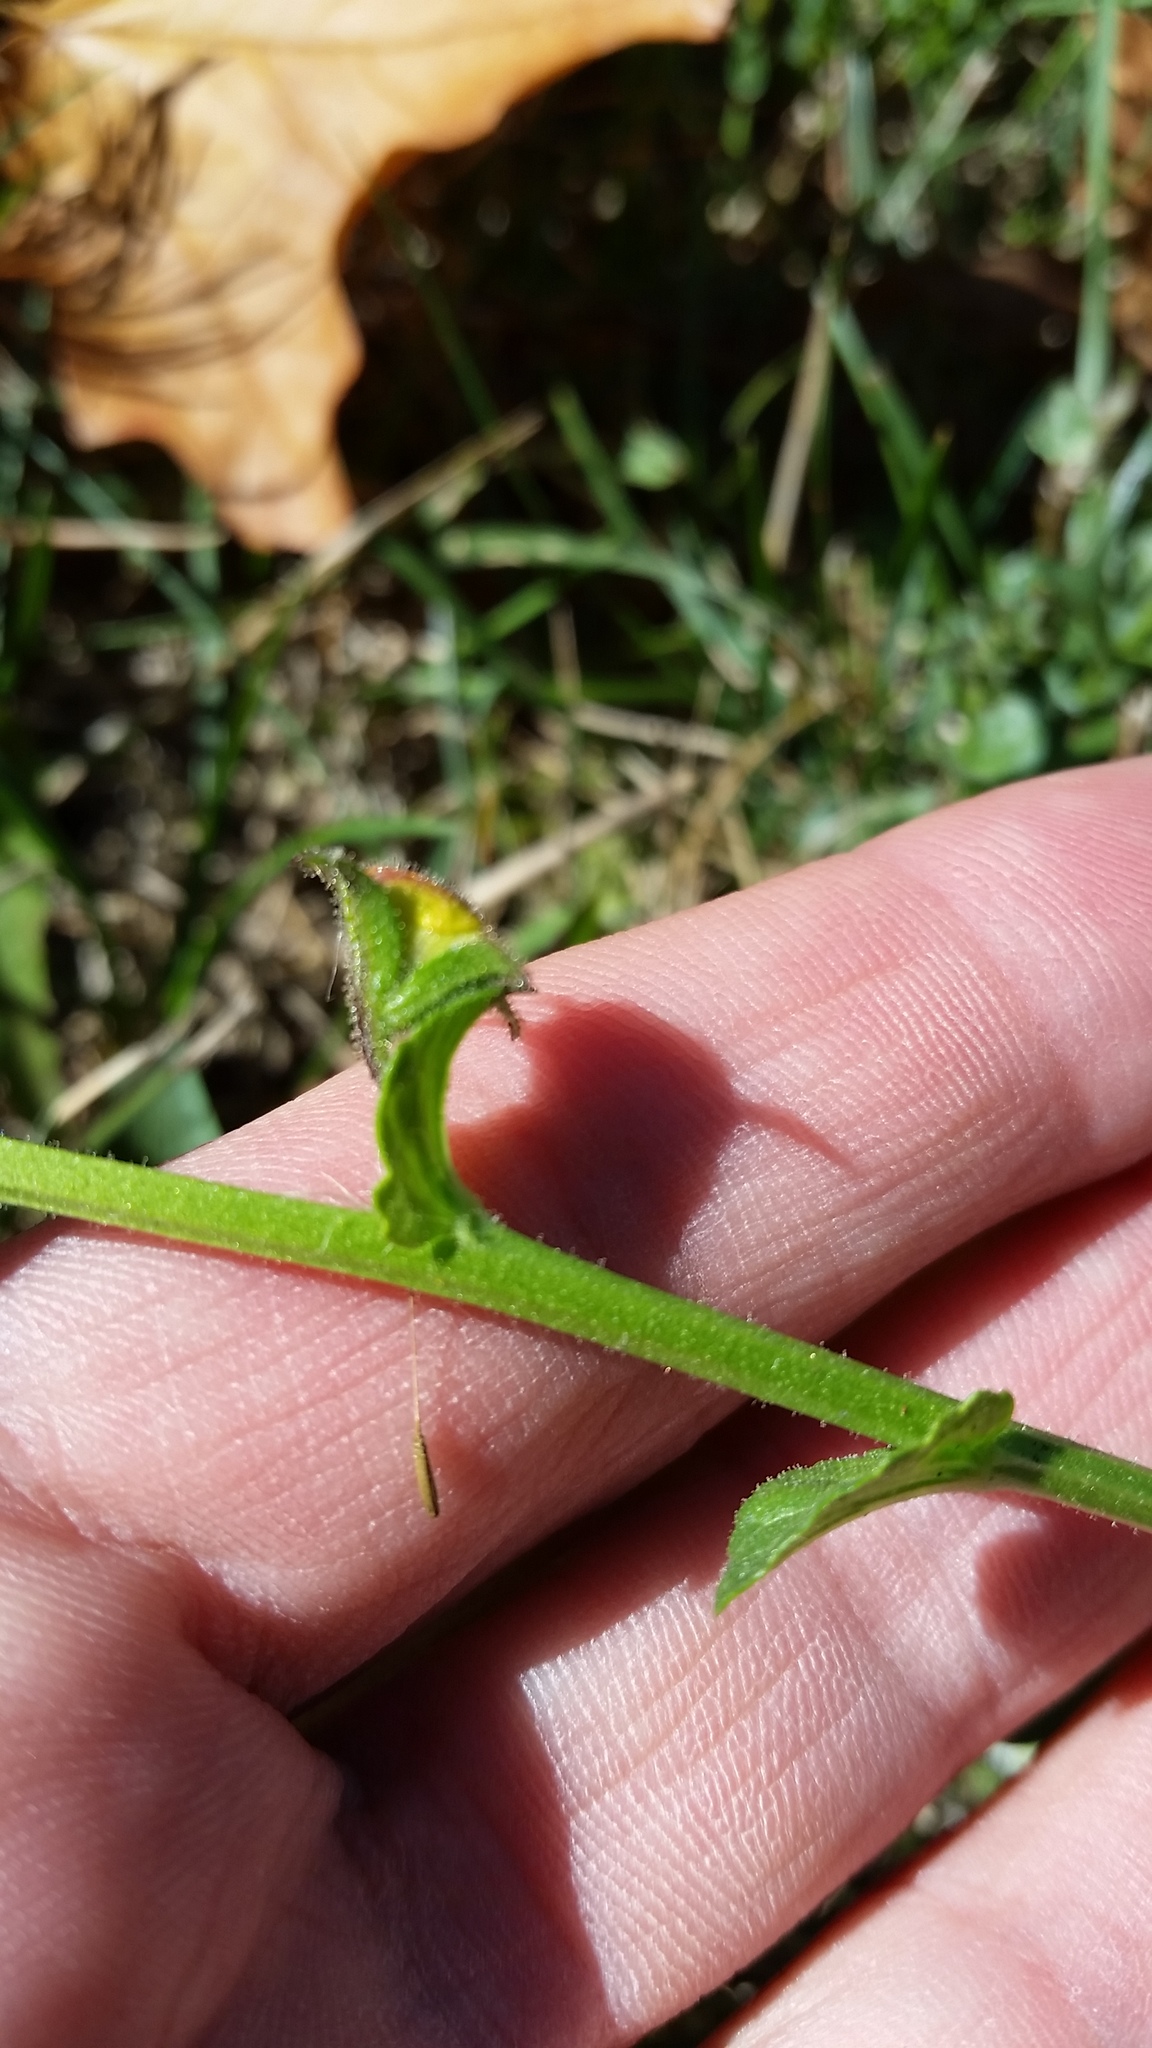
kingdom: Plantae
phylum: Tracheophyta
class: Magnoliopsida
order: Lamiales
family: Scrophulariaceae
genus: Verbascum
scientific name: Verbascum blattaria
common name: Moth mullein
